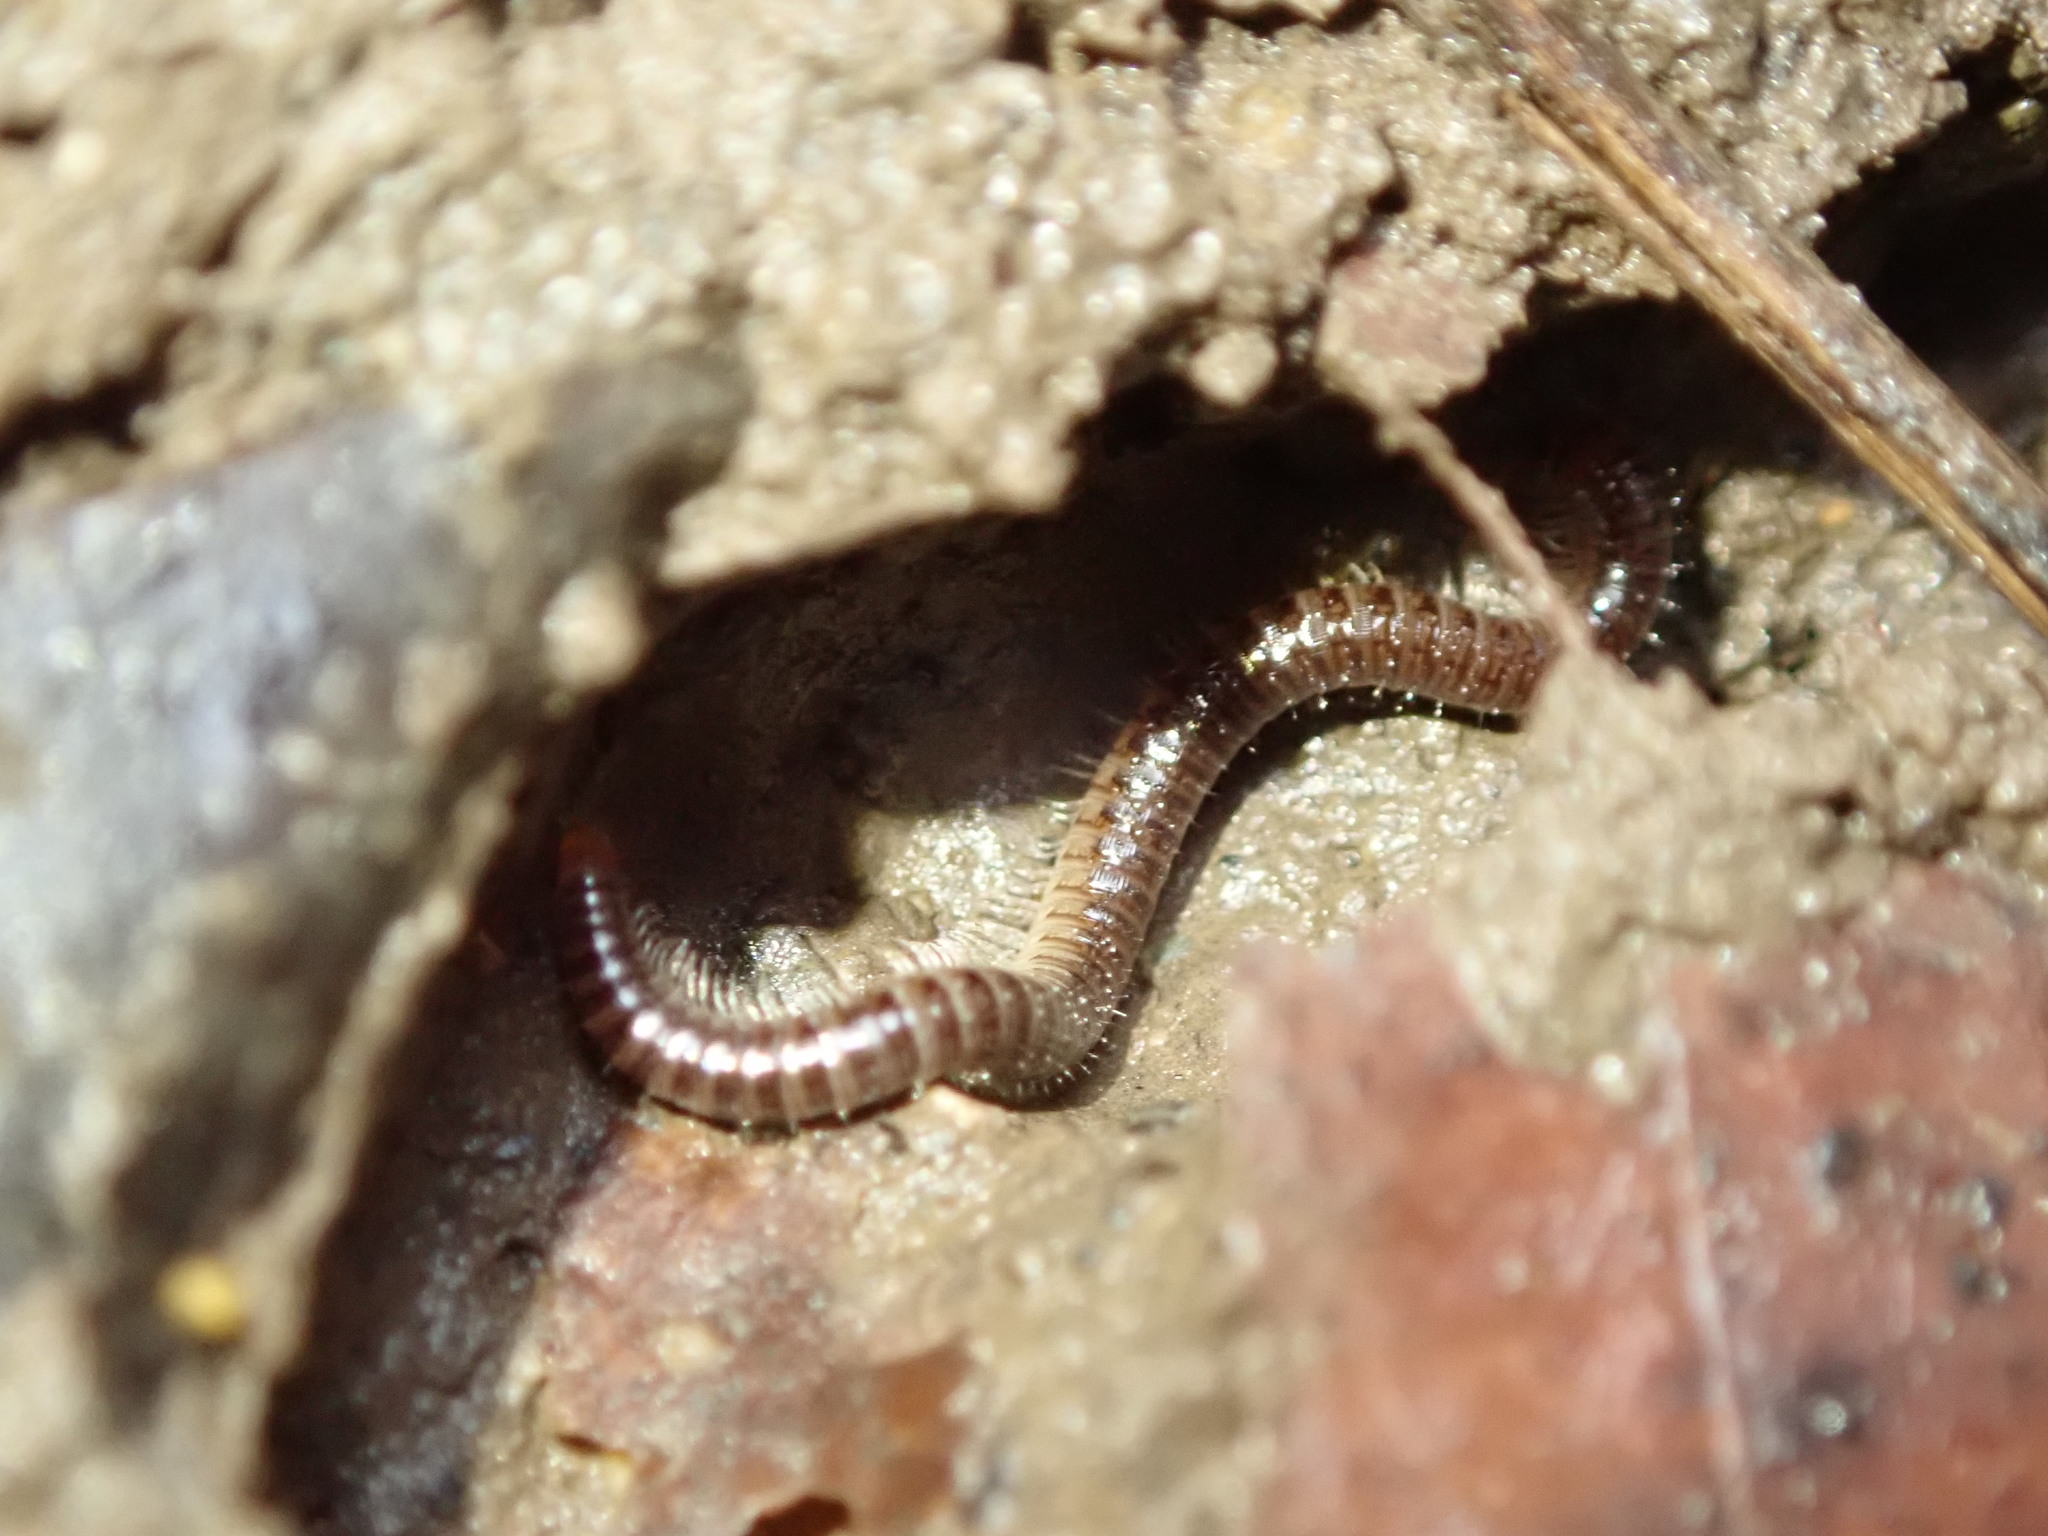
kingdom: Animalia
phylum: Arthropoda
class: Diplopoda
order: Julida
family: Julidae
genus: Ophyiulus
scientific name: Ophyiulus pilosus
